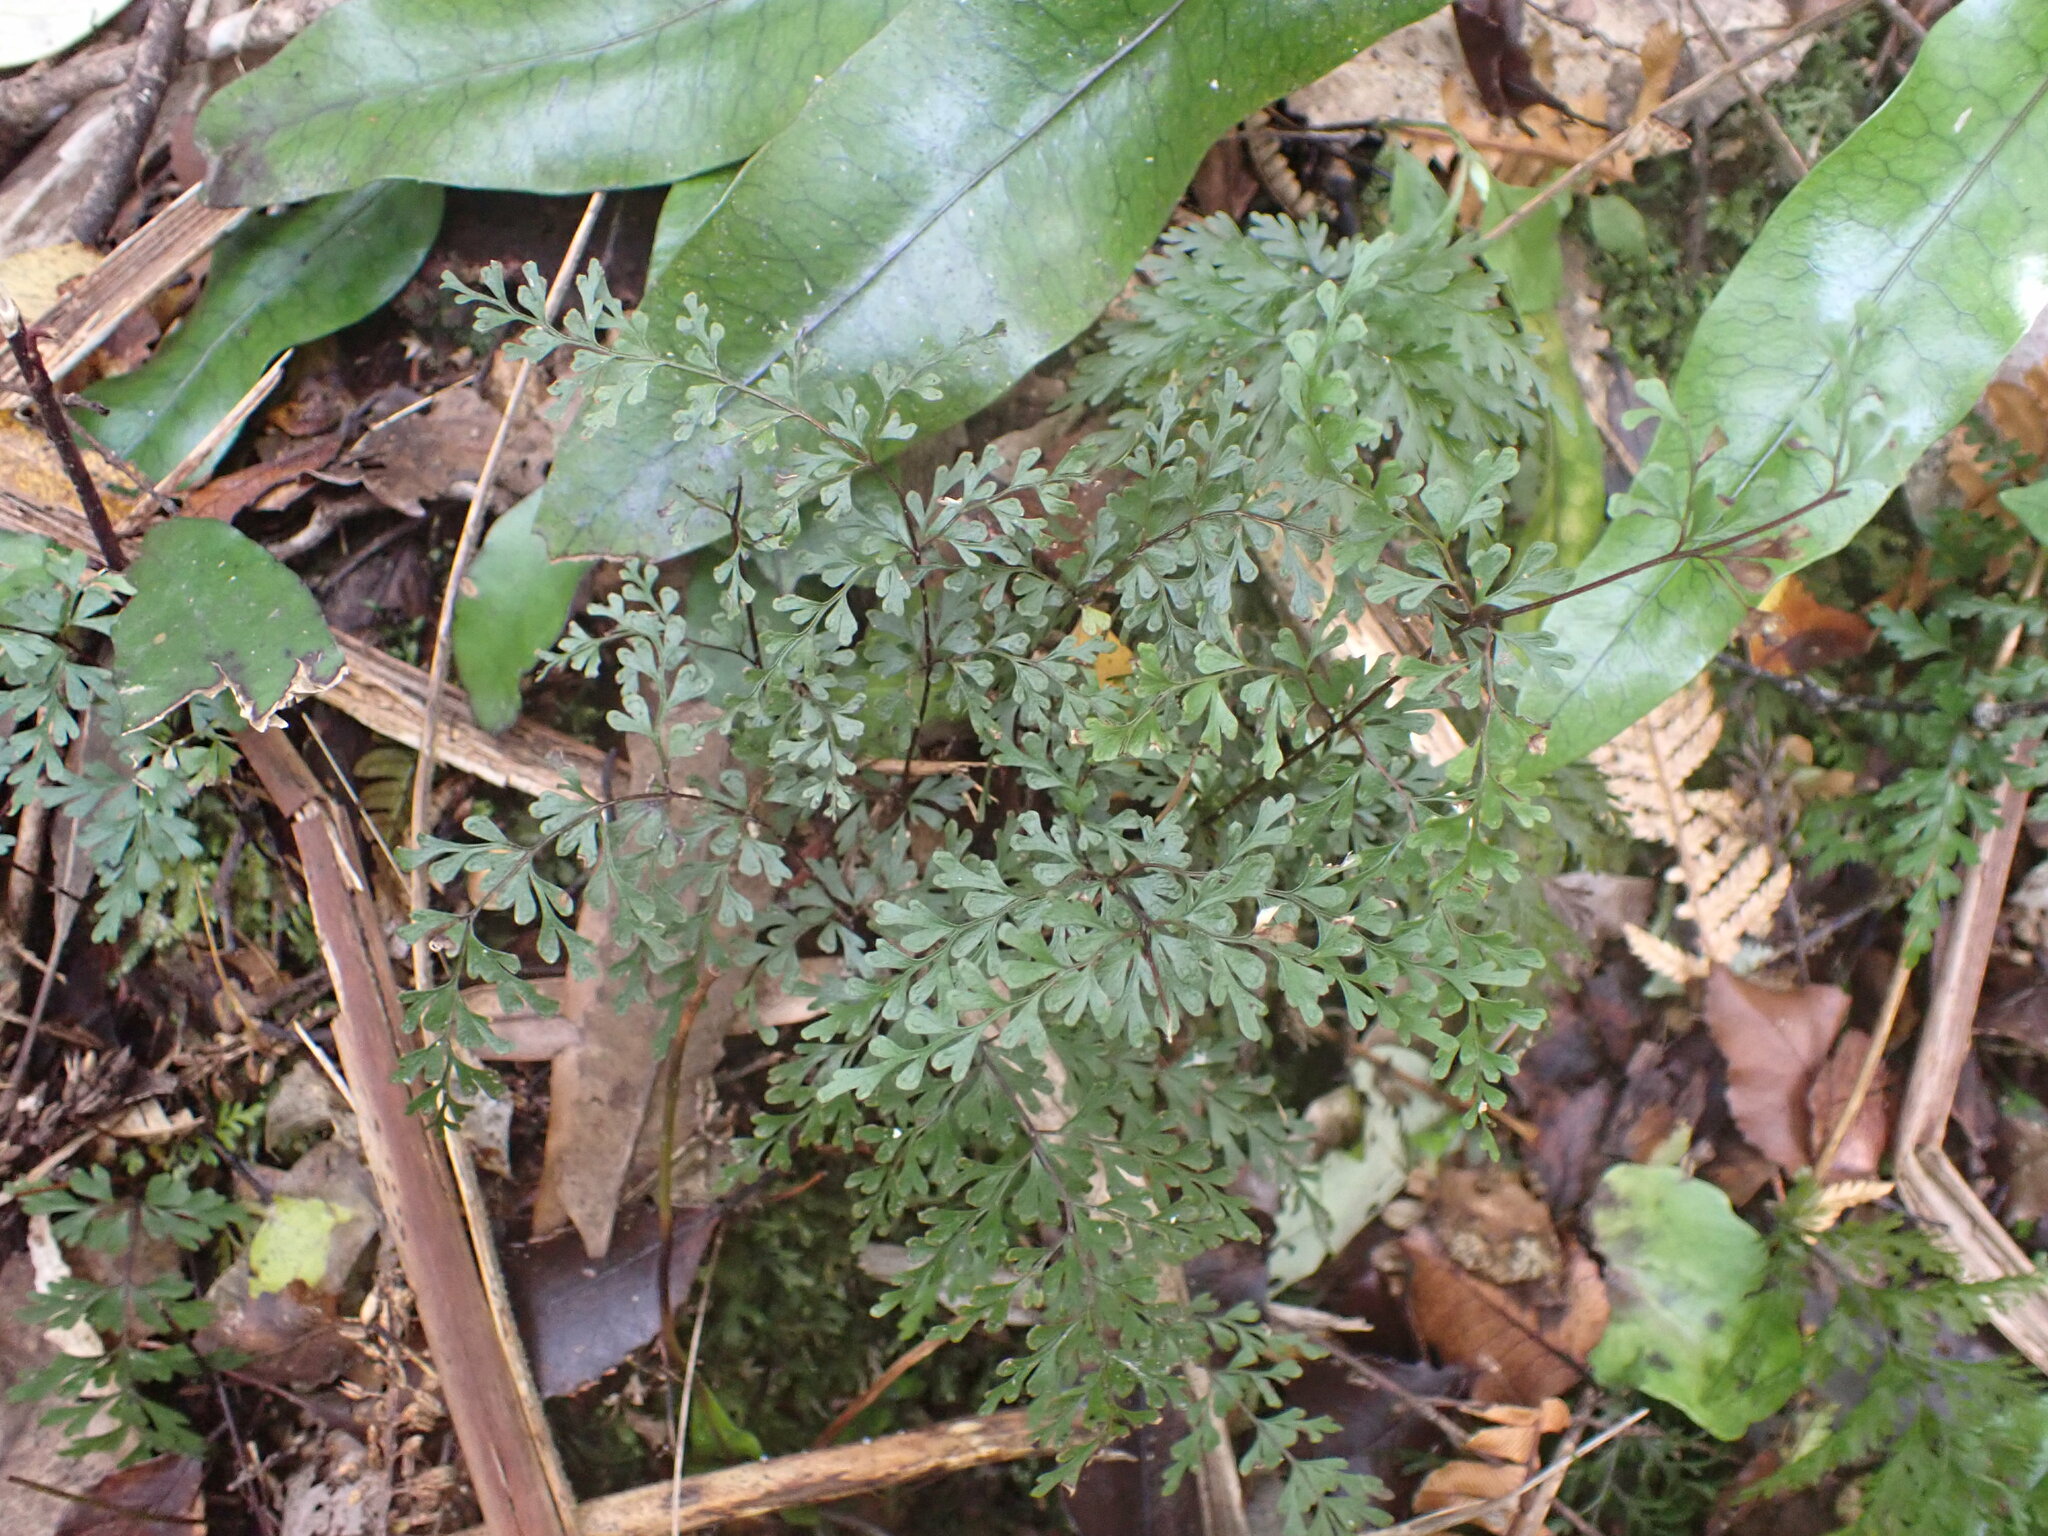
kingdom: Plantae
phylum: Tracheophyta
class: Polypodiopsida
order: Polypodiales
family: Lindsaeaceae
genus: Lindsaea
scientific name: Lindsaea trichomanoides
